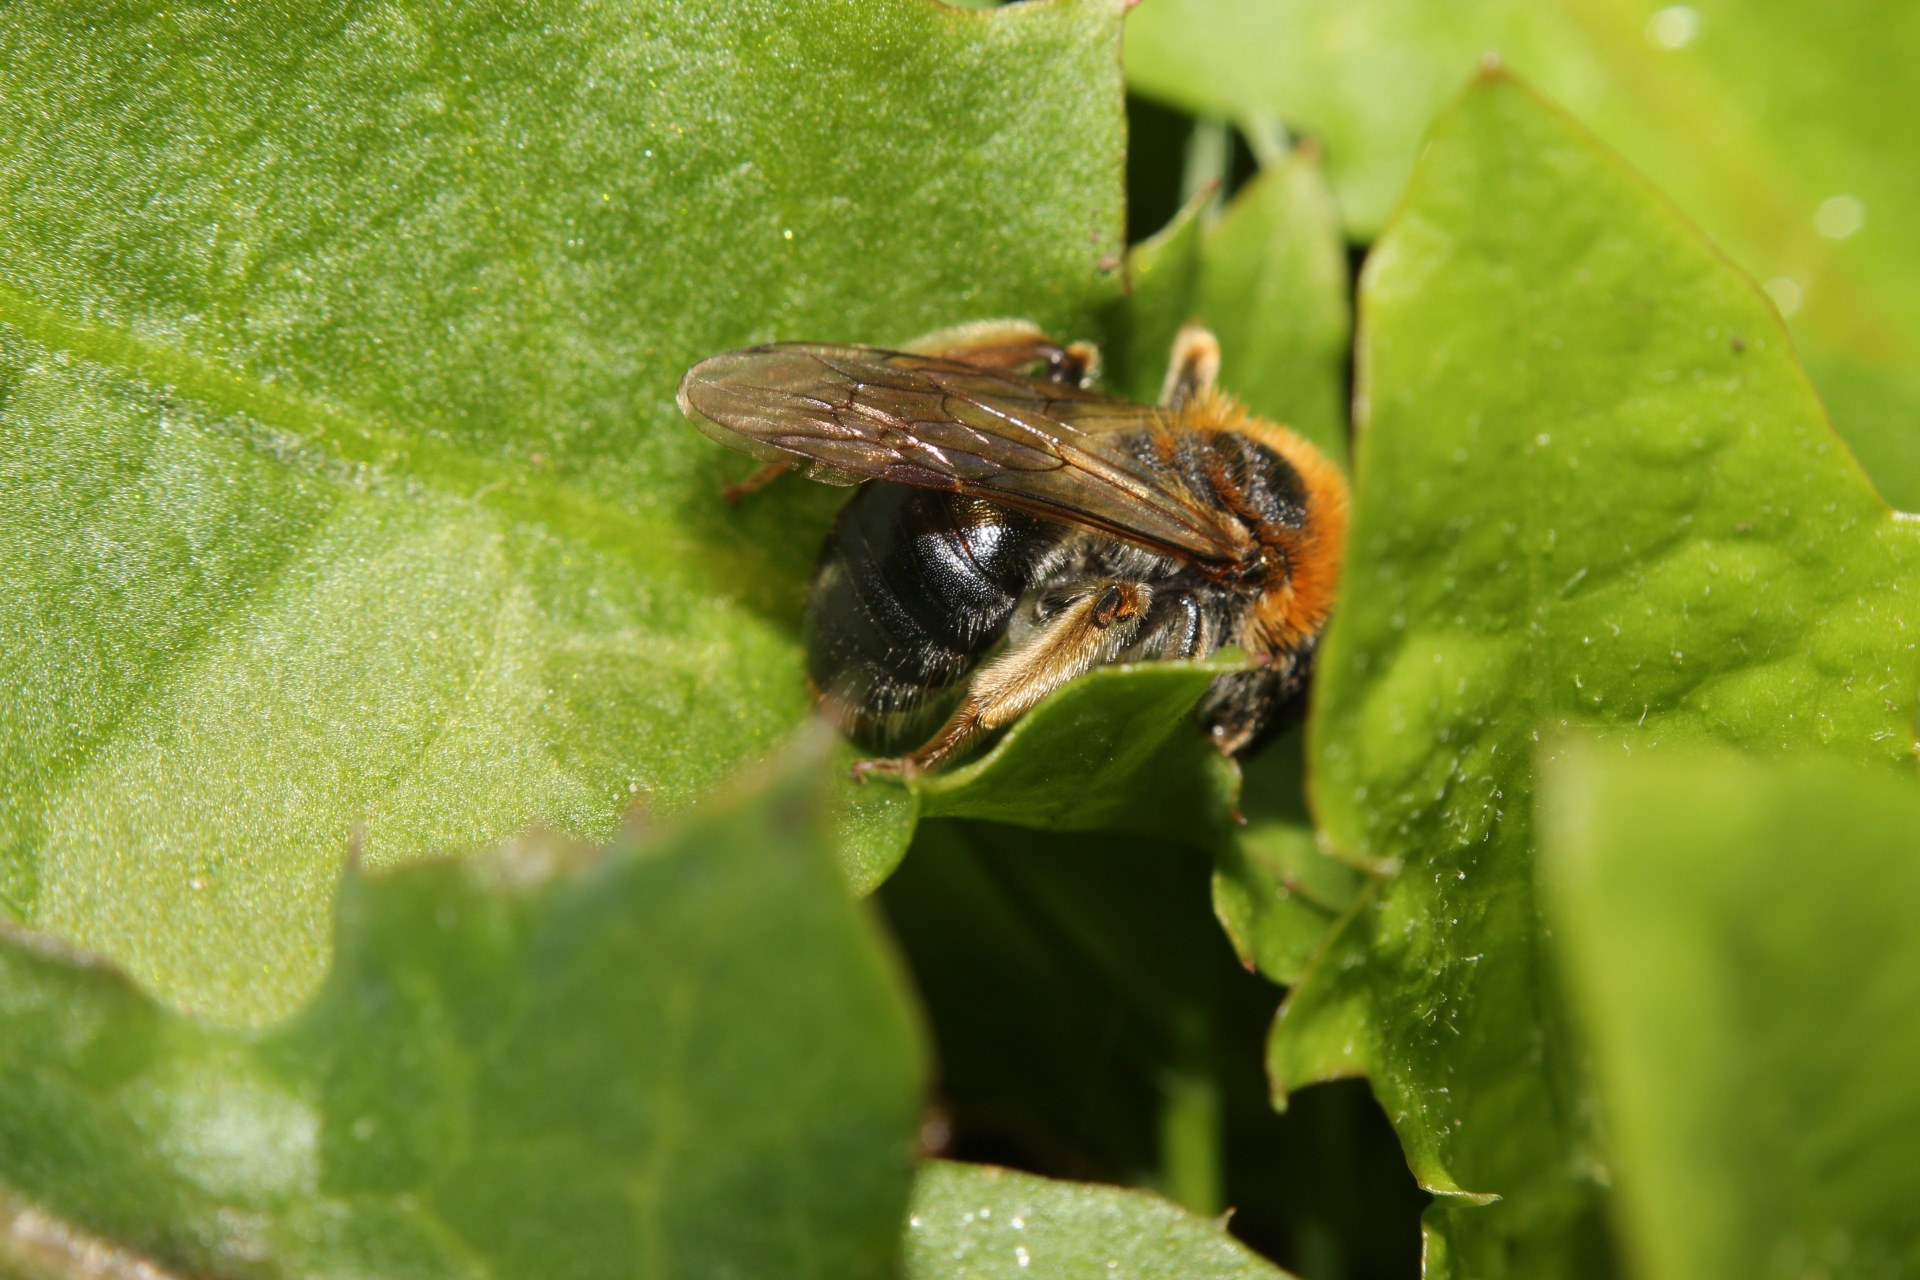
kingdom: Animalia
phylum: Arthropoda
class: Insecta
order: Hymenoptera
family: Andrenidae
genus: Andrena
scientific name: Andrena haemorrhoa
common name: Early mining bee
